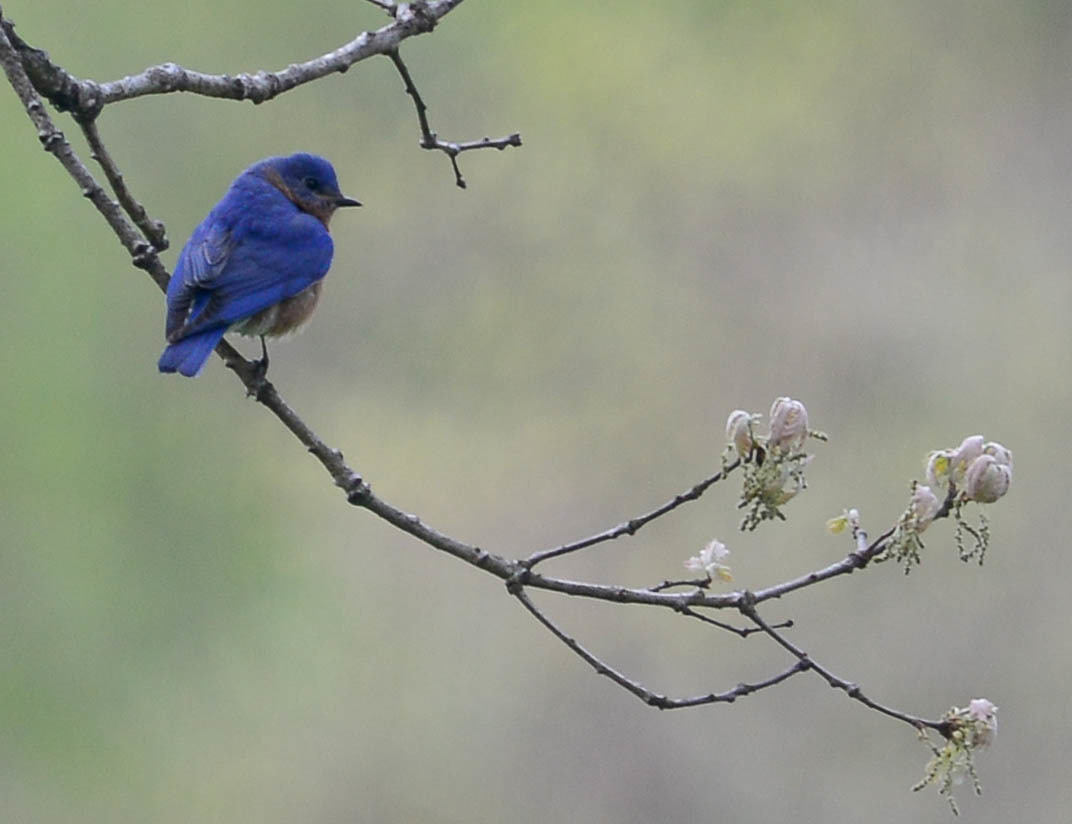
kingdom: Animalia
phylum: Chordata
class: Aves
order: Passeriformes
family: Turdidae
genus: Sialia
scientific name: Sialia sialis
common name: Eastern bluebird
